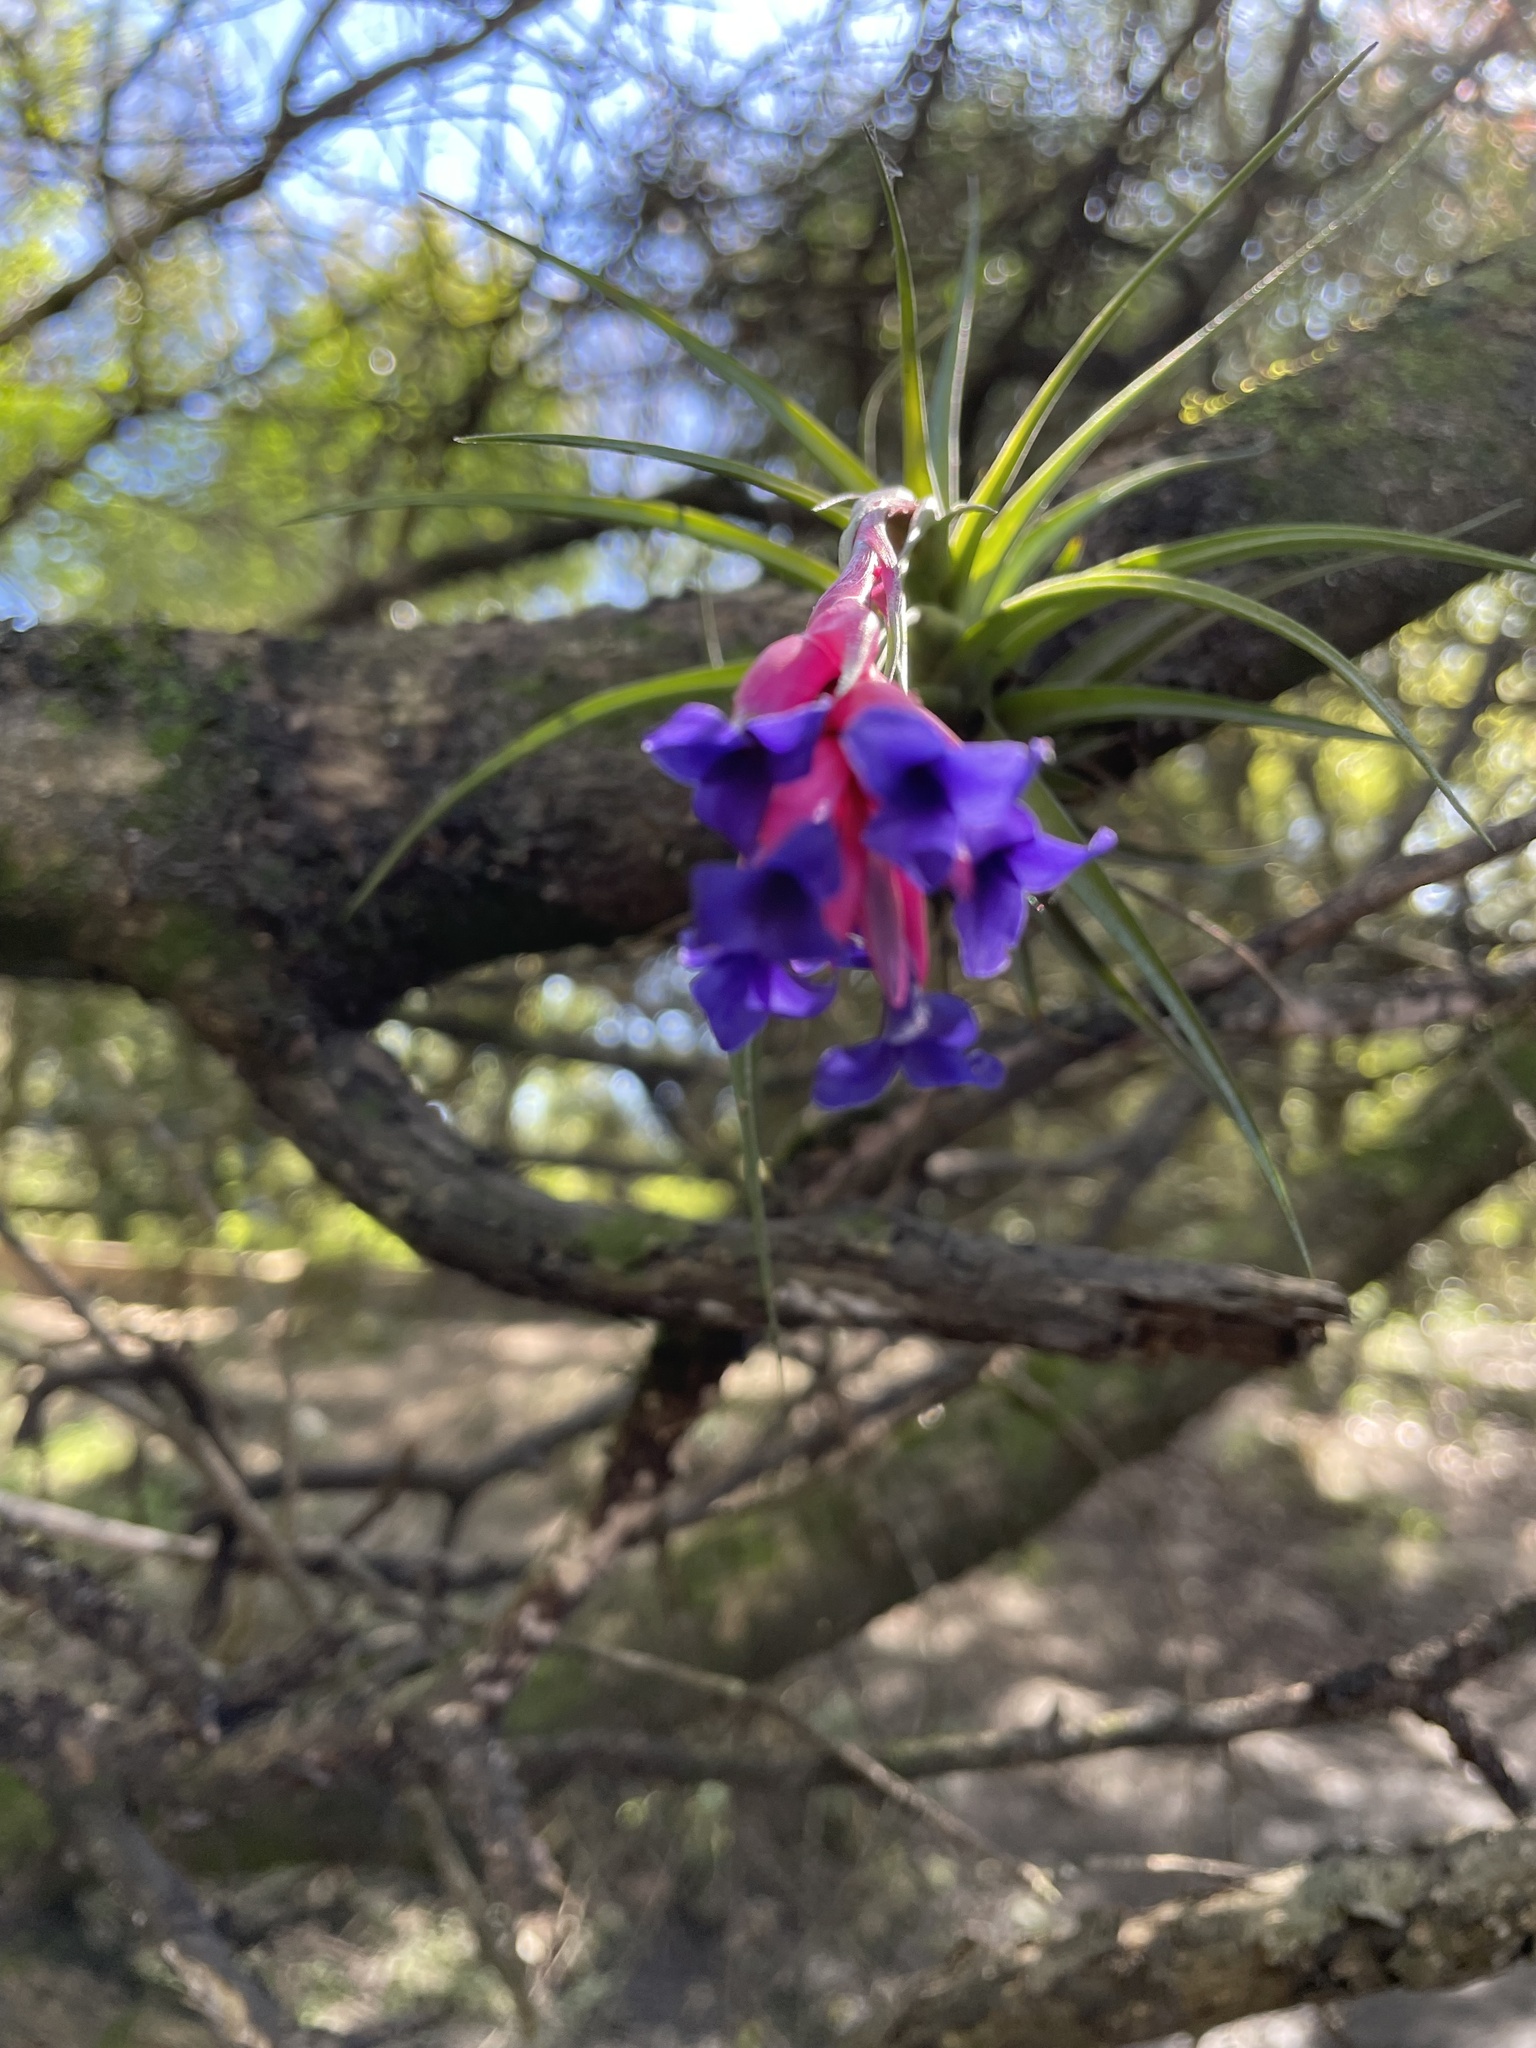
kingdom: Plantae
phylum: Tracheophyta
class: Liliopsida
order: Poales
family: Bromeliaceae
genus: Tillandsia
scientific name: Tillandsia aeranthos
